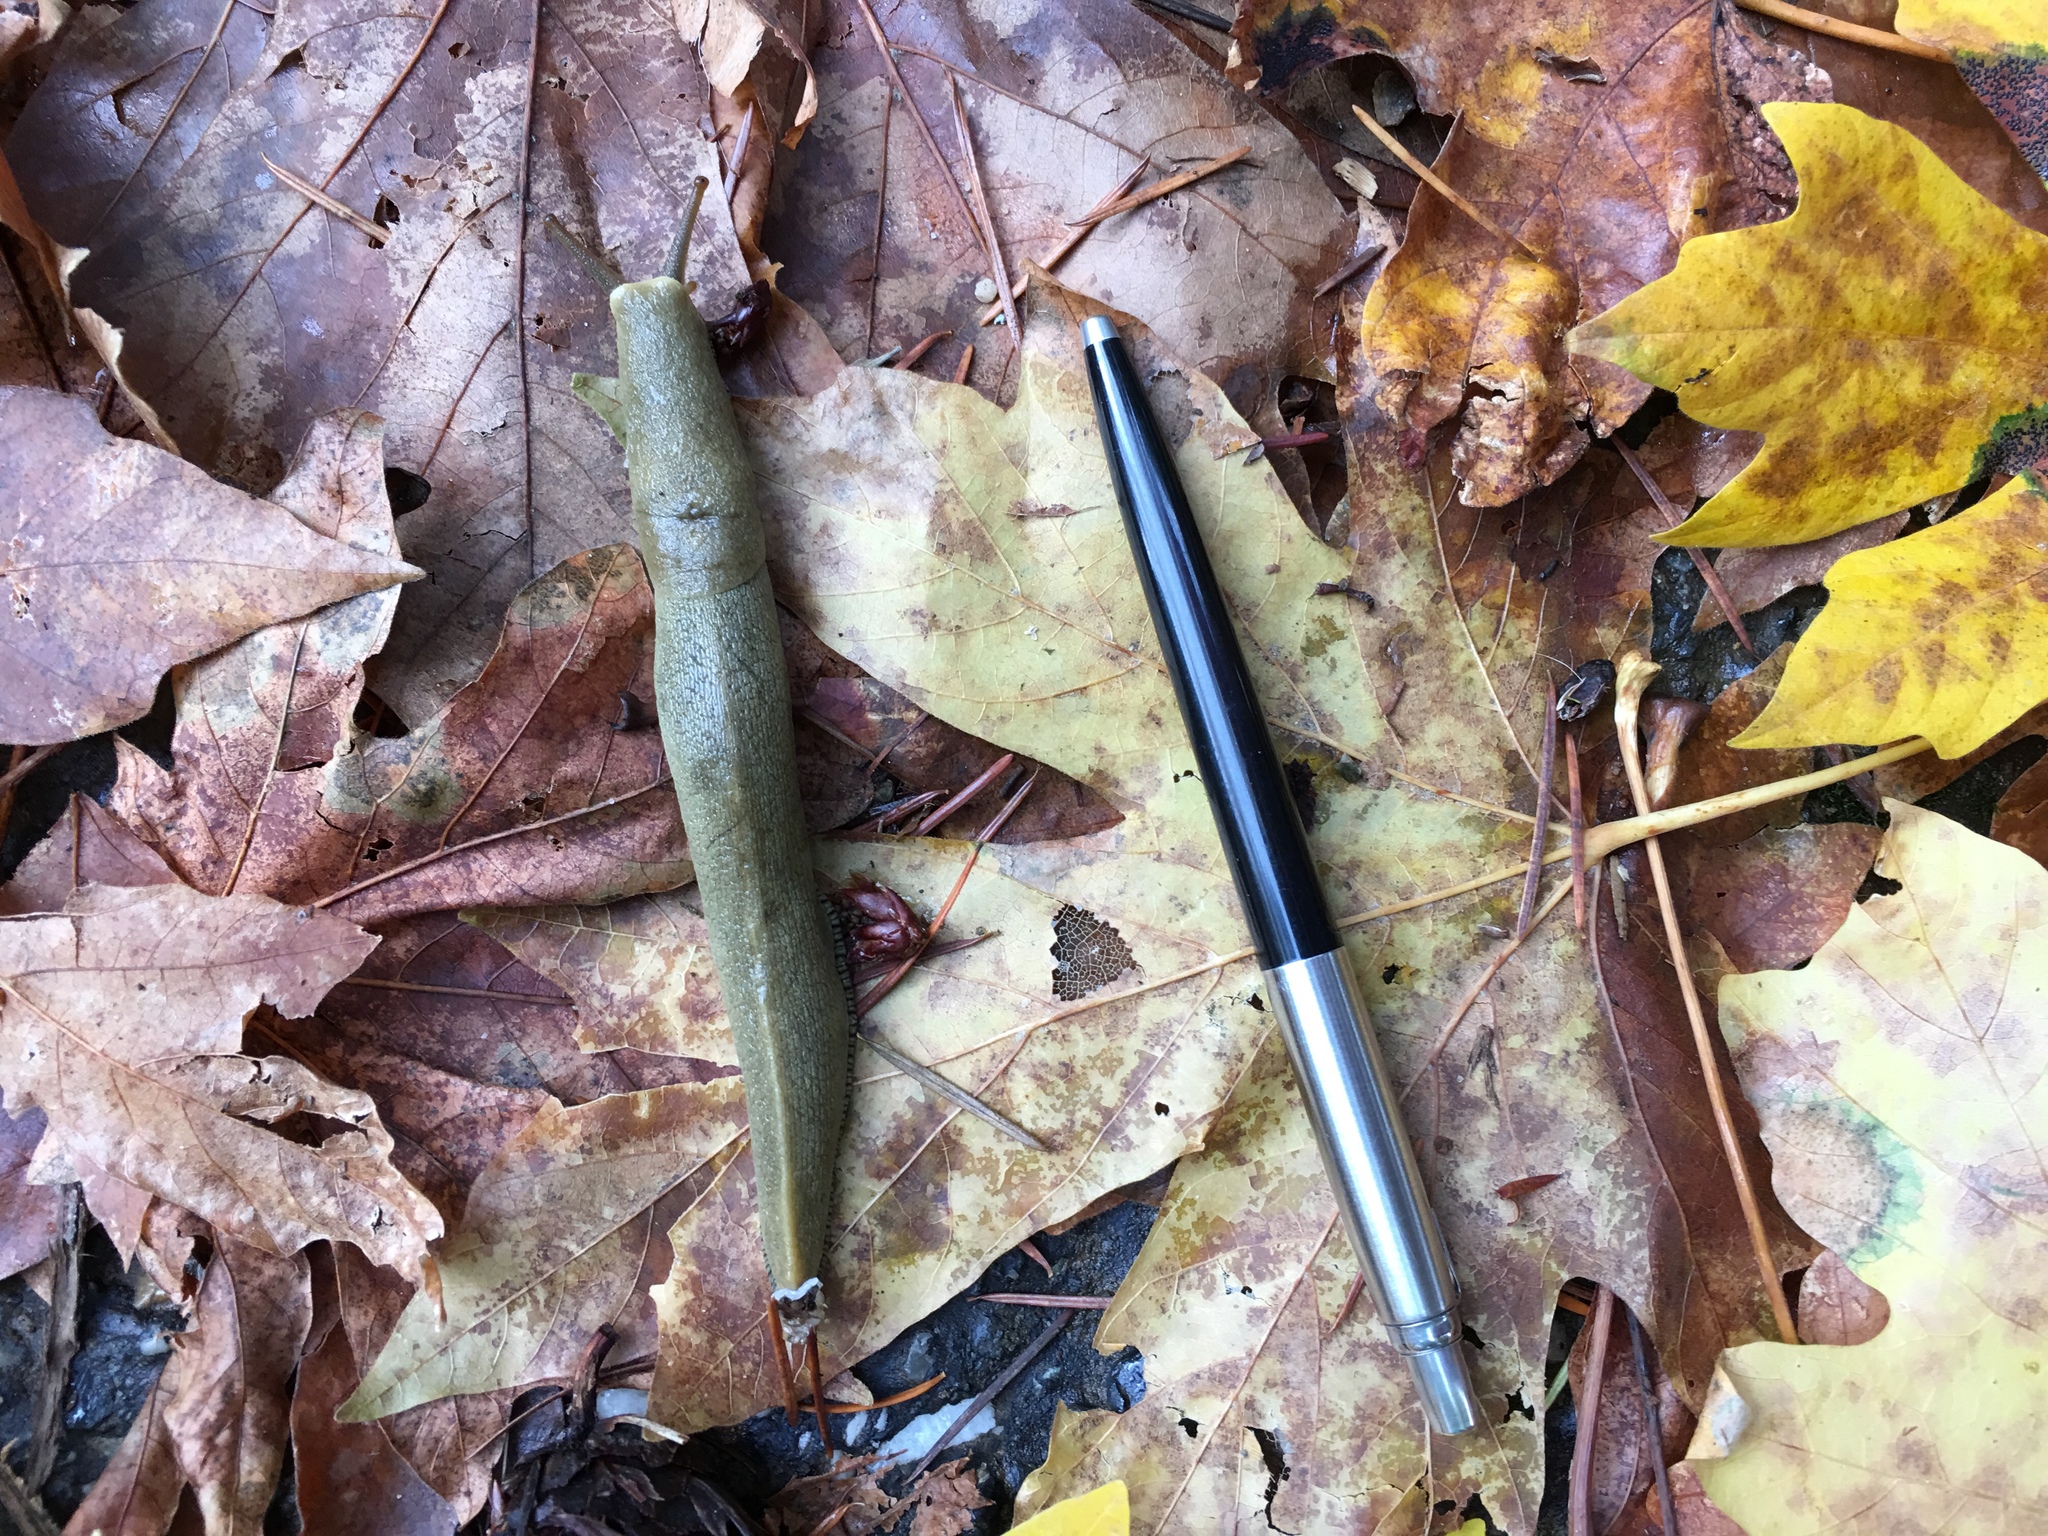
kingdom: Animalia
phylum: Mollusca
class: Gastropoda
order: Stylommatophora
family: Ariolimacidae
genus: Ariolimax
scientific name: Ariolimax buttoni
